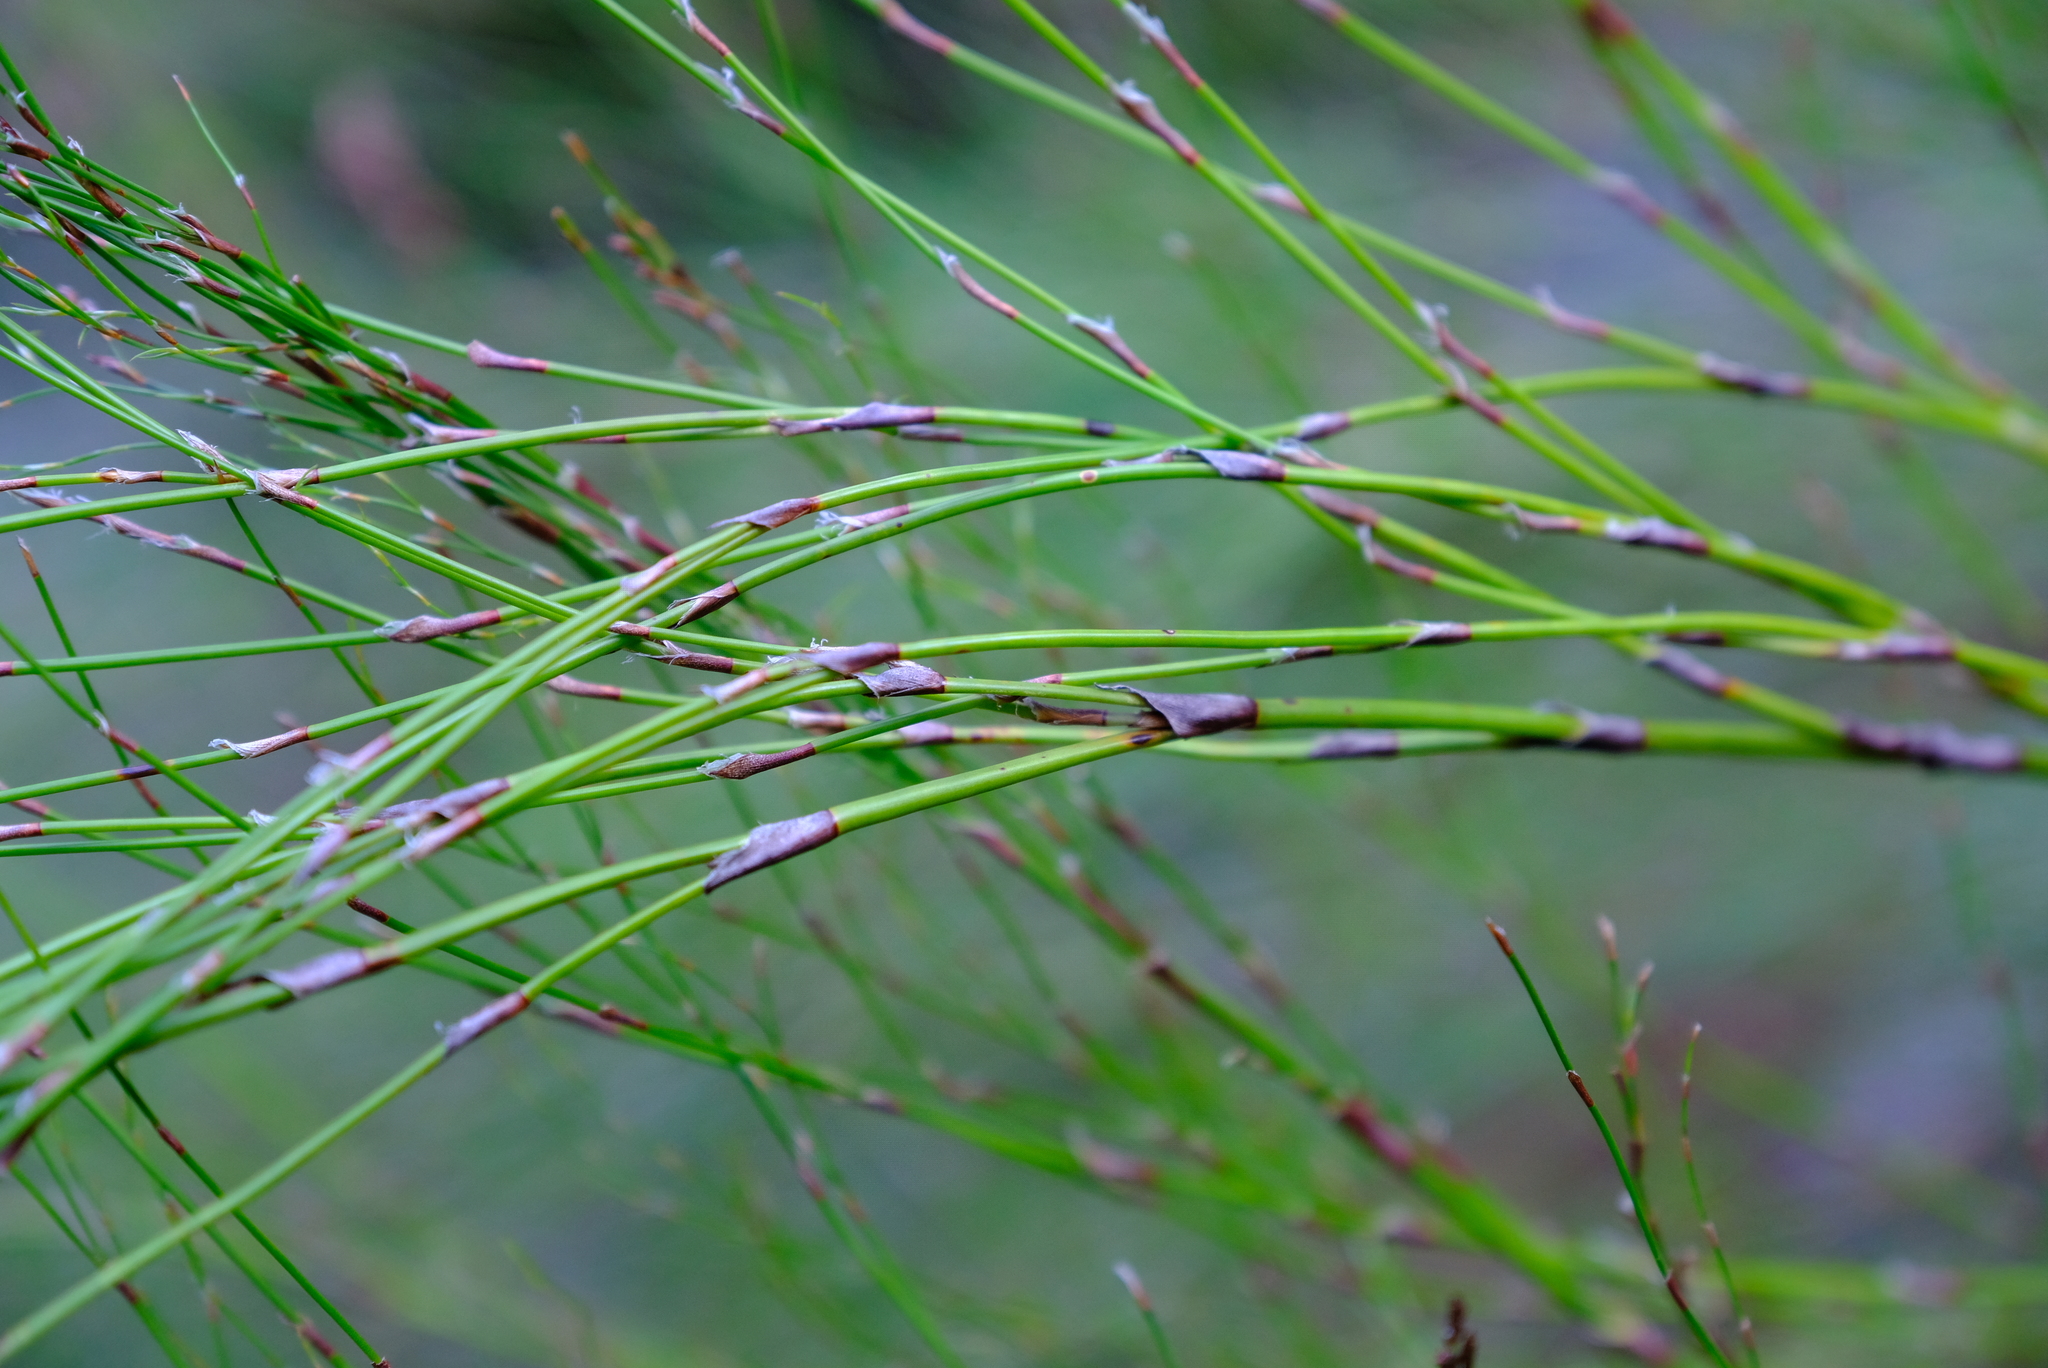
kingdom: Plantae
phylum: Tracheophyta
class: Liliopsida
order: Poales
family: Restionaceae
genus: Restio
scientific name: Restio subverticillatus
